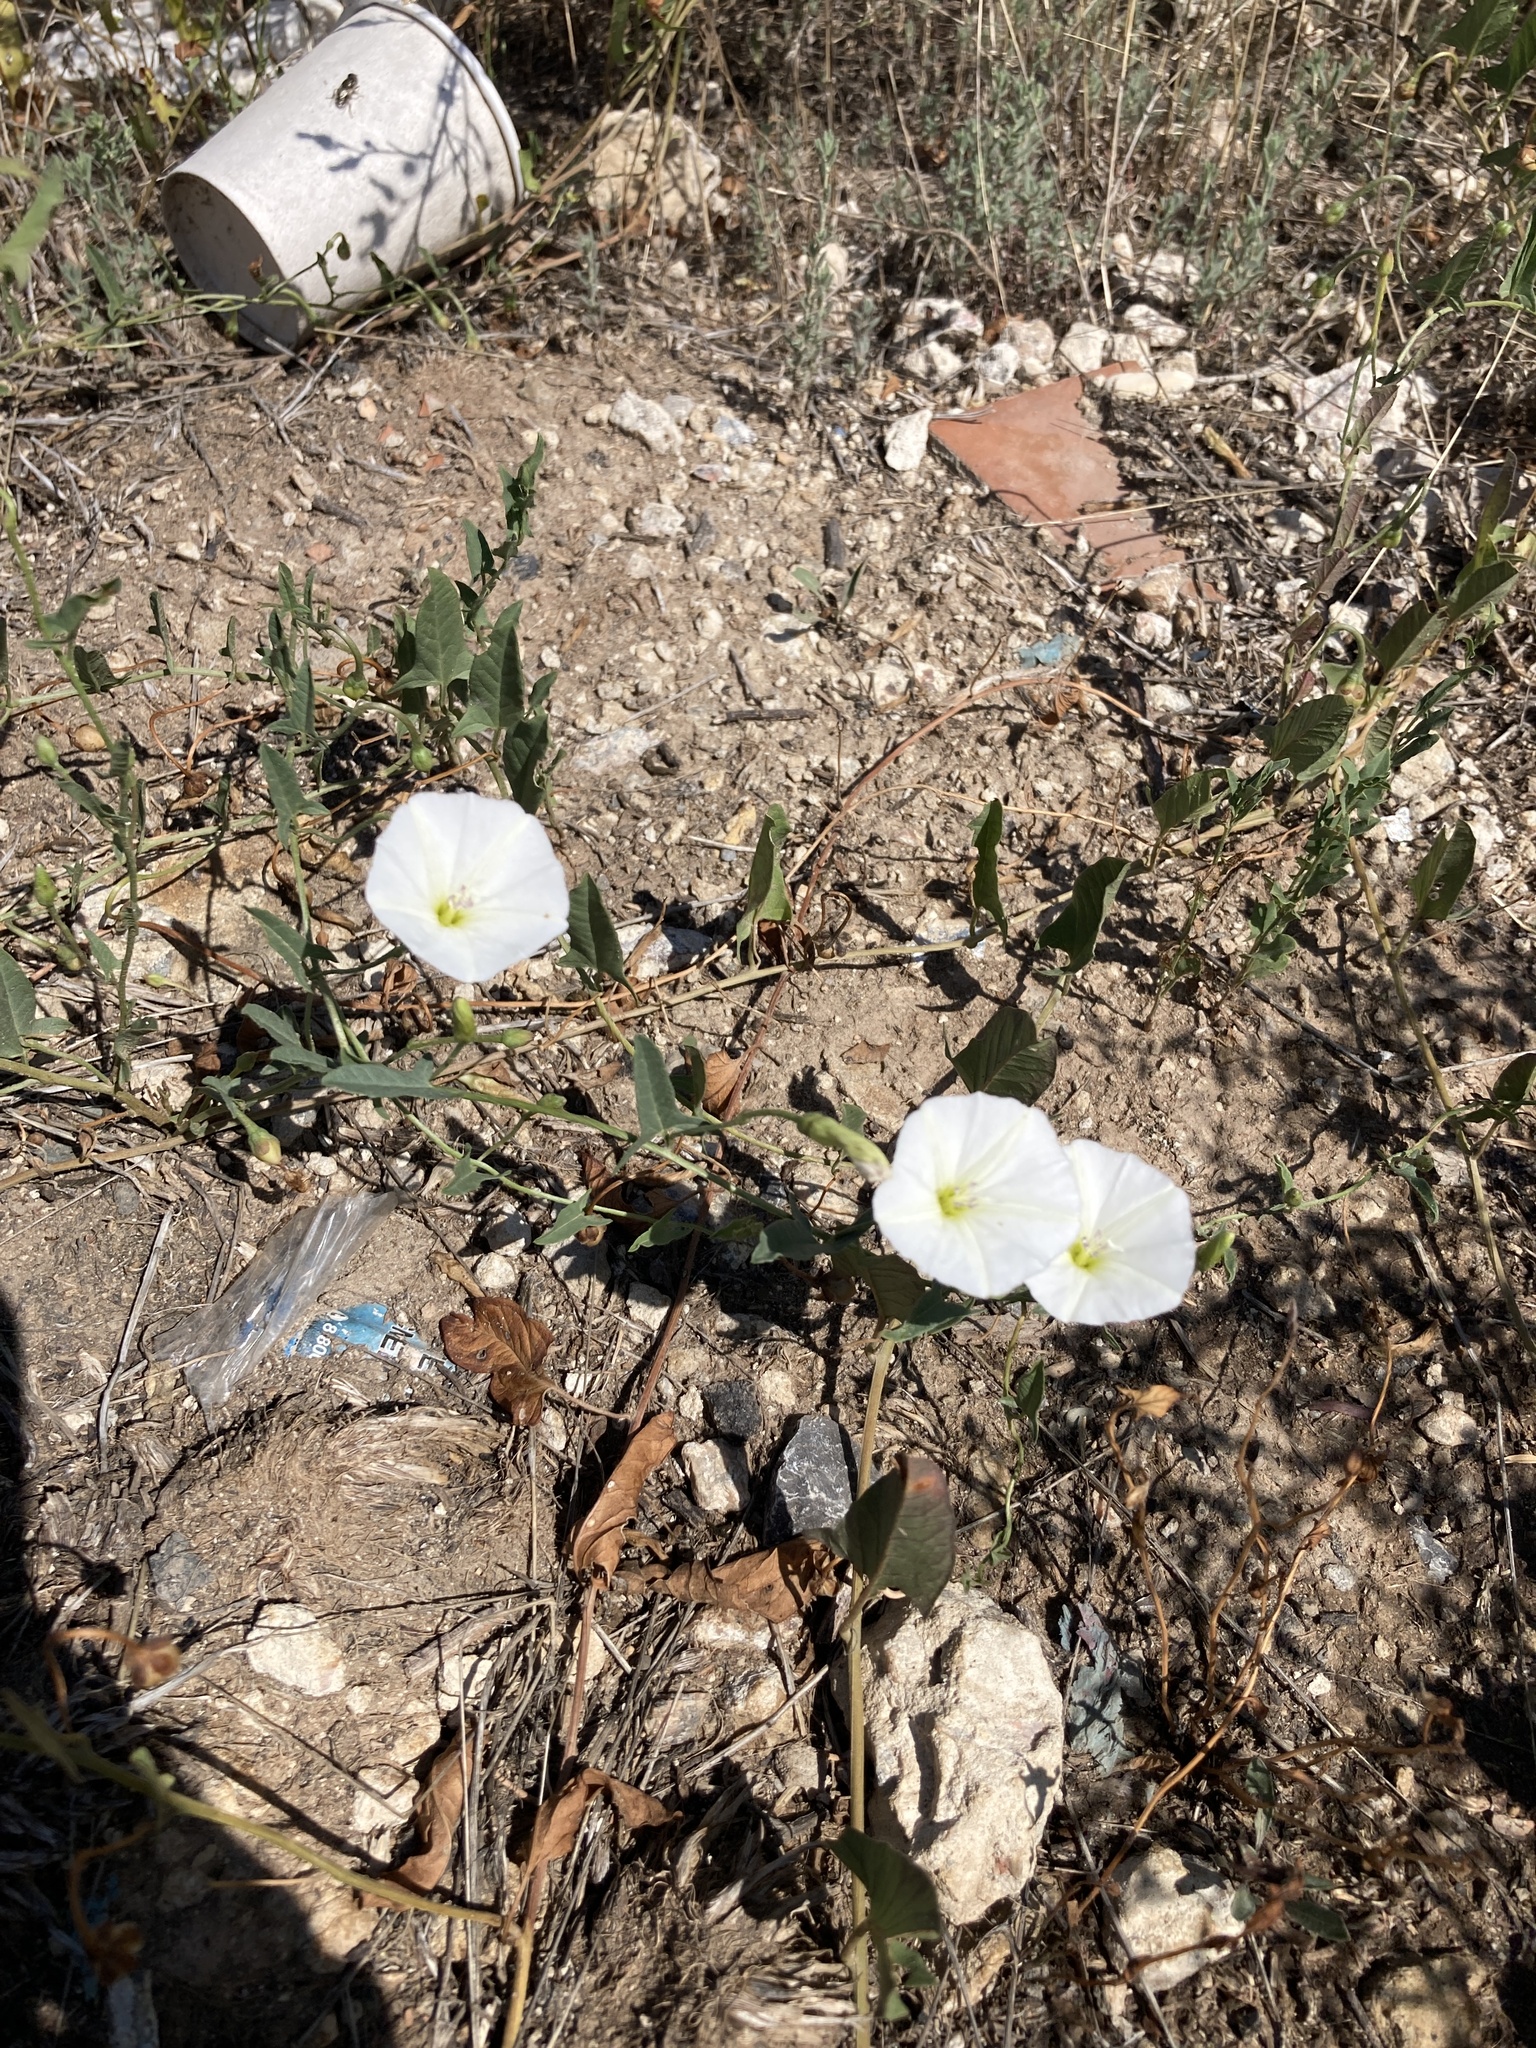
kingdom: Plantae
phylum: Tracheophyta
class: Magnoliopsida
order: Solanales
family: Convolvulaceae
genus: Convolvulus
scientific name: Convolvulus arvensis
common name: Field bindweed
